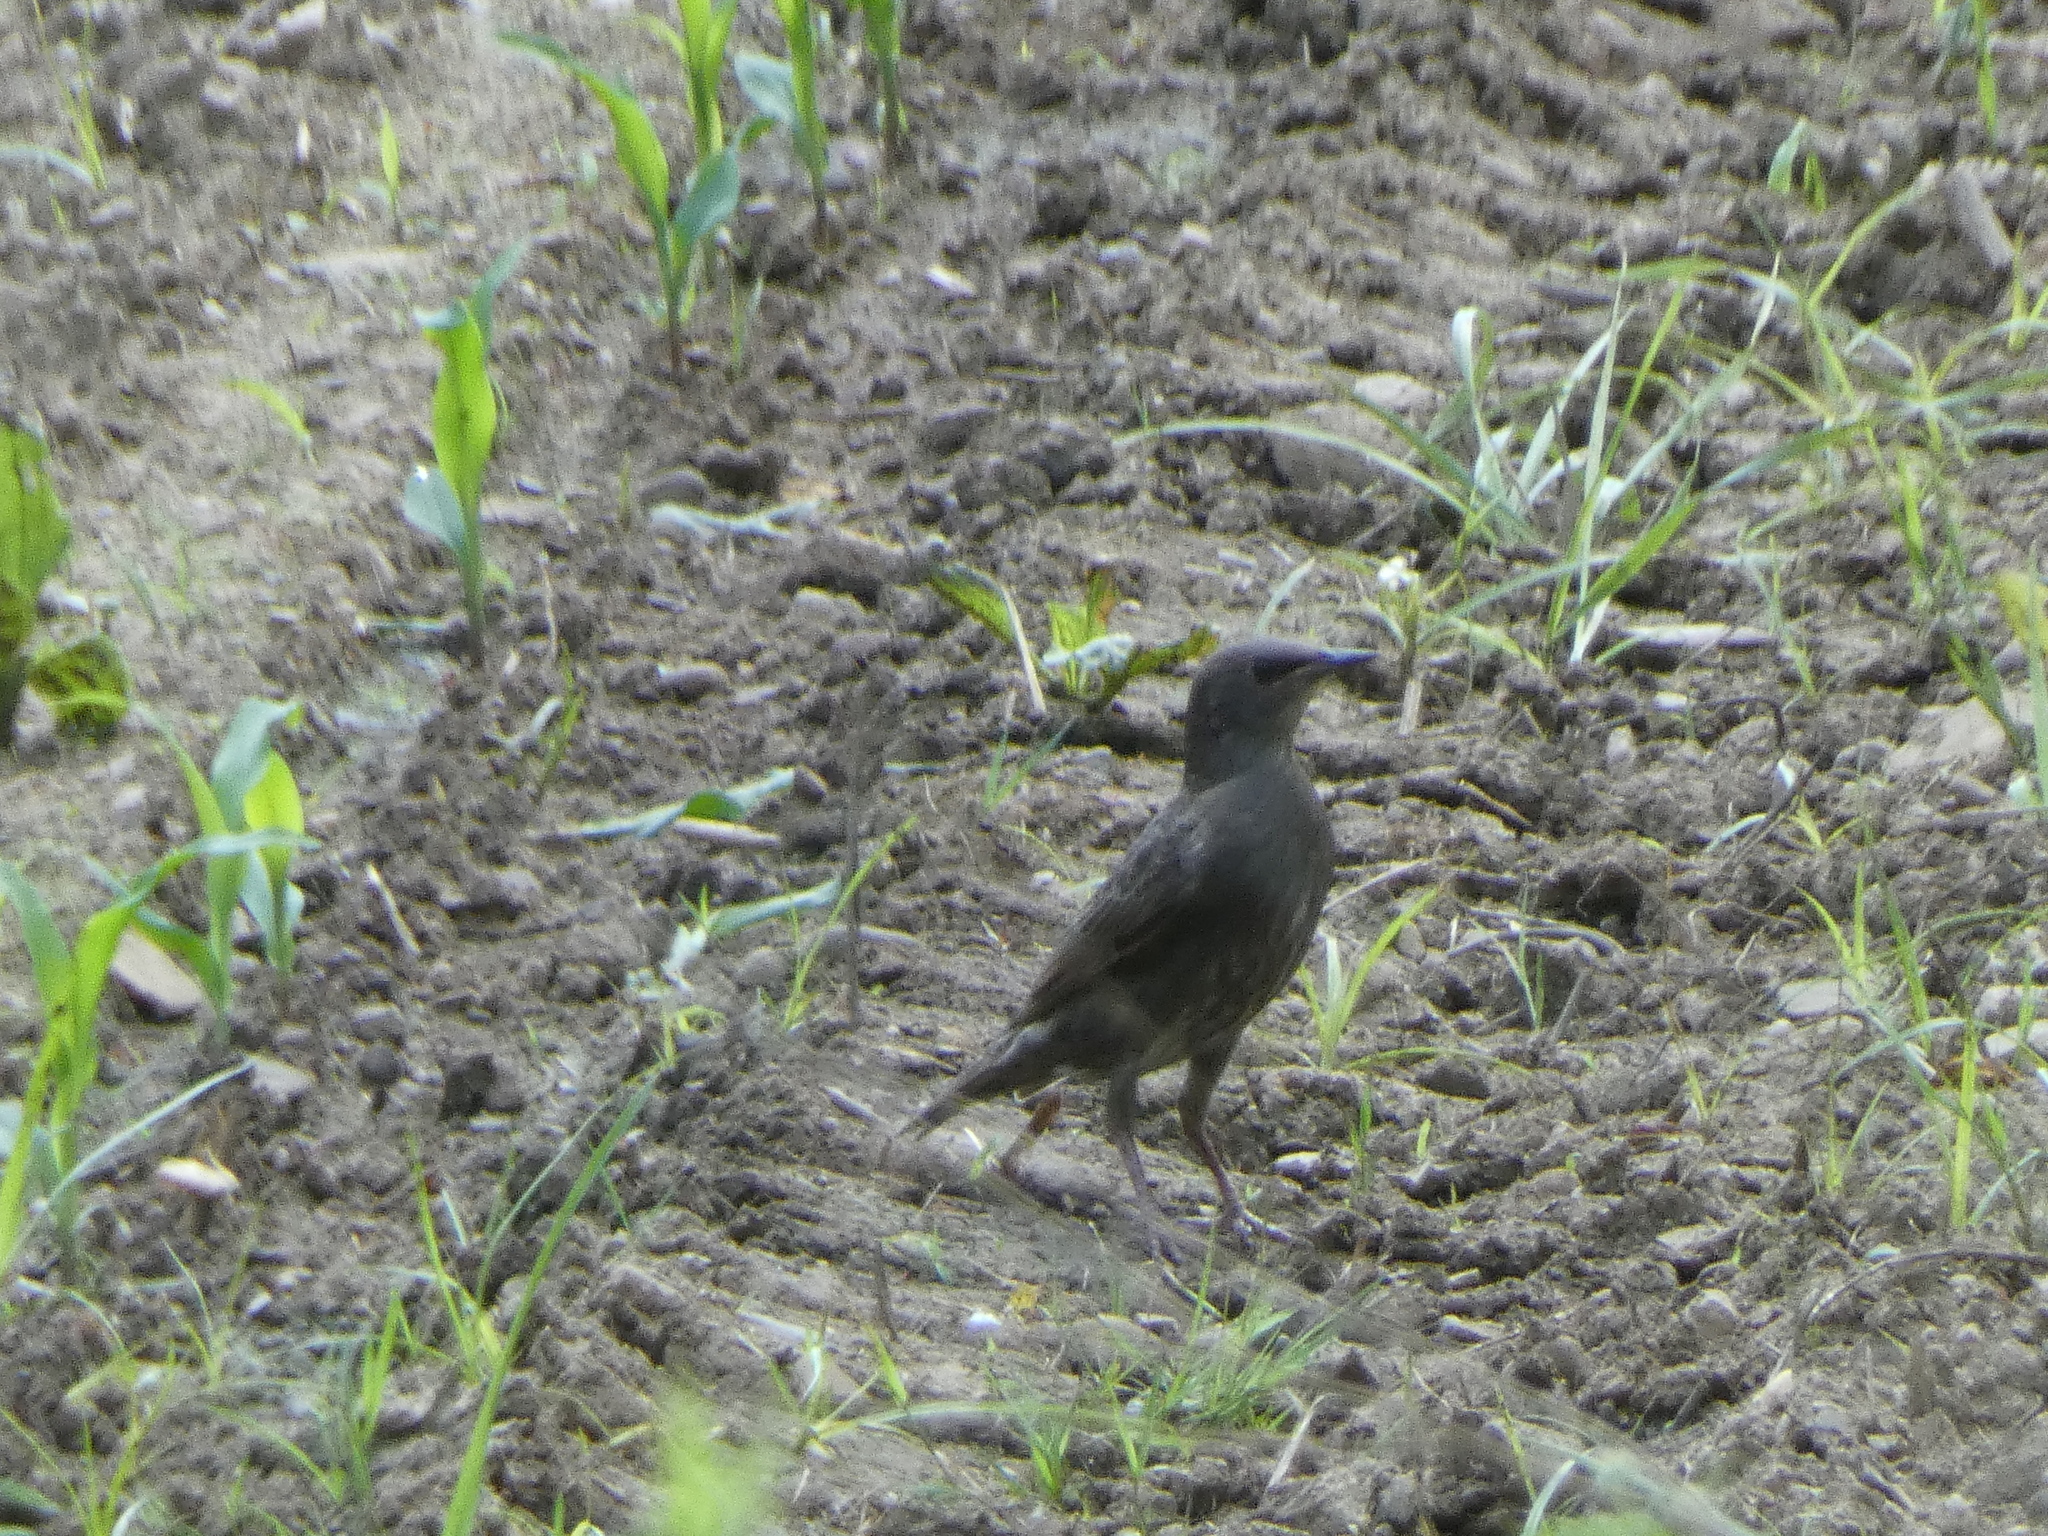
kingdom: Animalia
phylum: Chordata
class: Aves
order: Passeriformes
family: Sturnidae
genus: Sturnus
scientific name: Sturnus vulgaris
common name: Common starling
